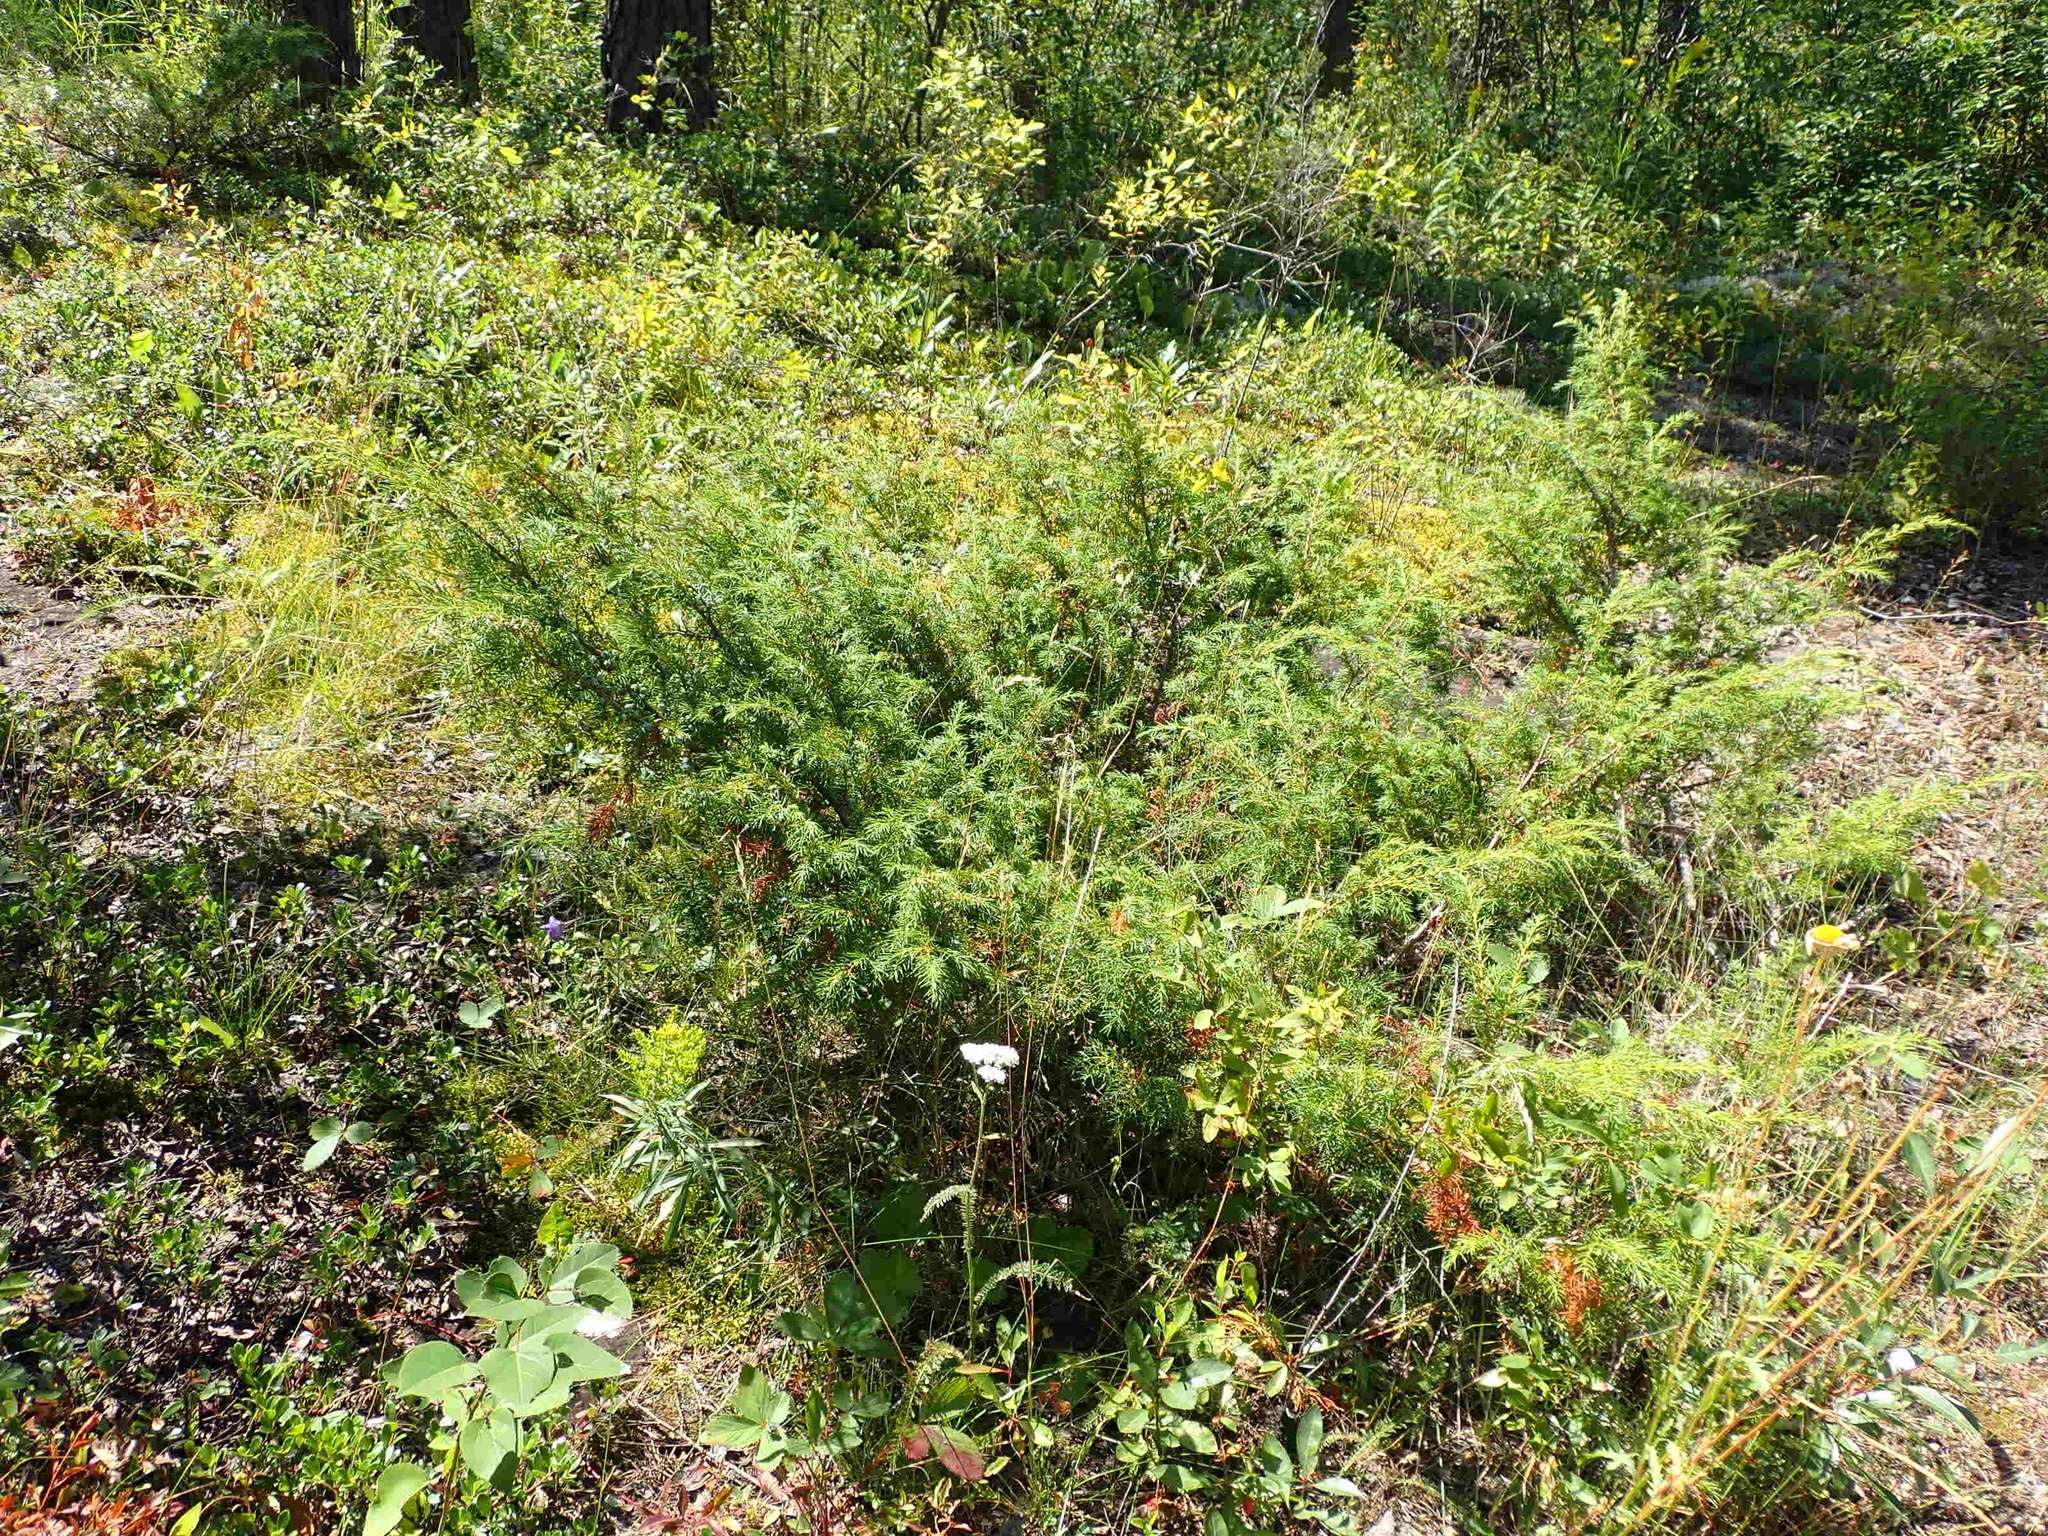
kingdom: Plantae
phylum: Tracheophyta
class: Pinopsida
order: Pinales
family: Cupressaceae
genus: Juniperus
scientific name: Juniperus communis
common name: Common juniper
